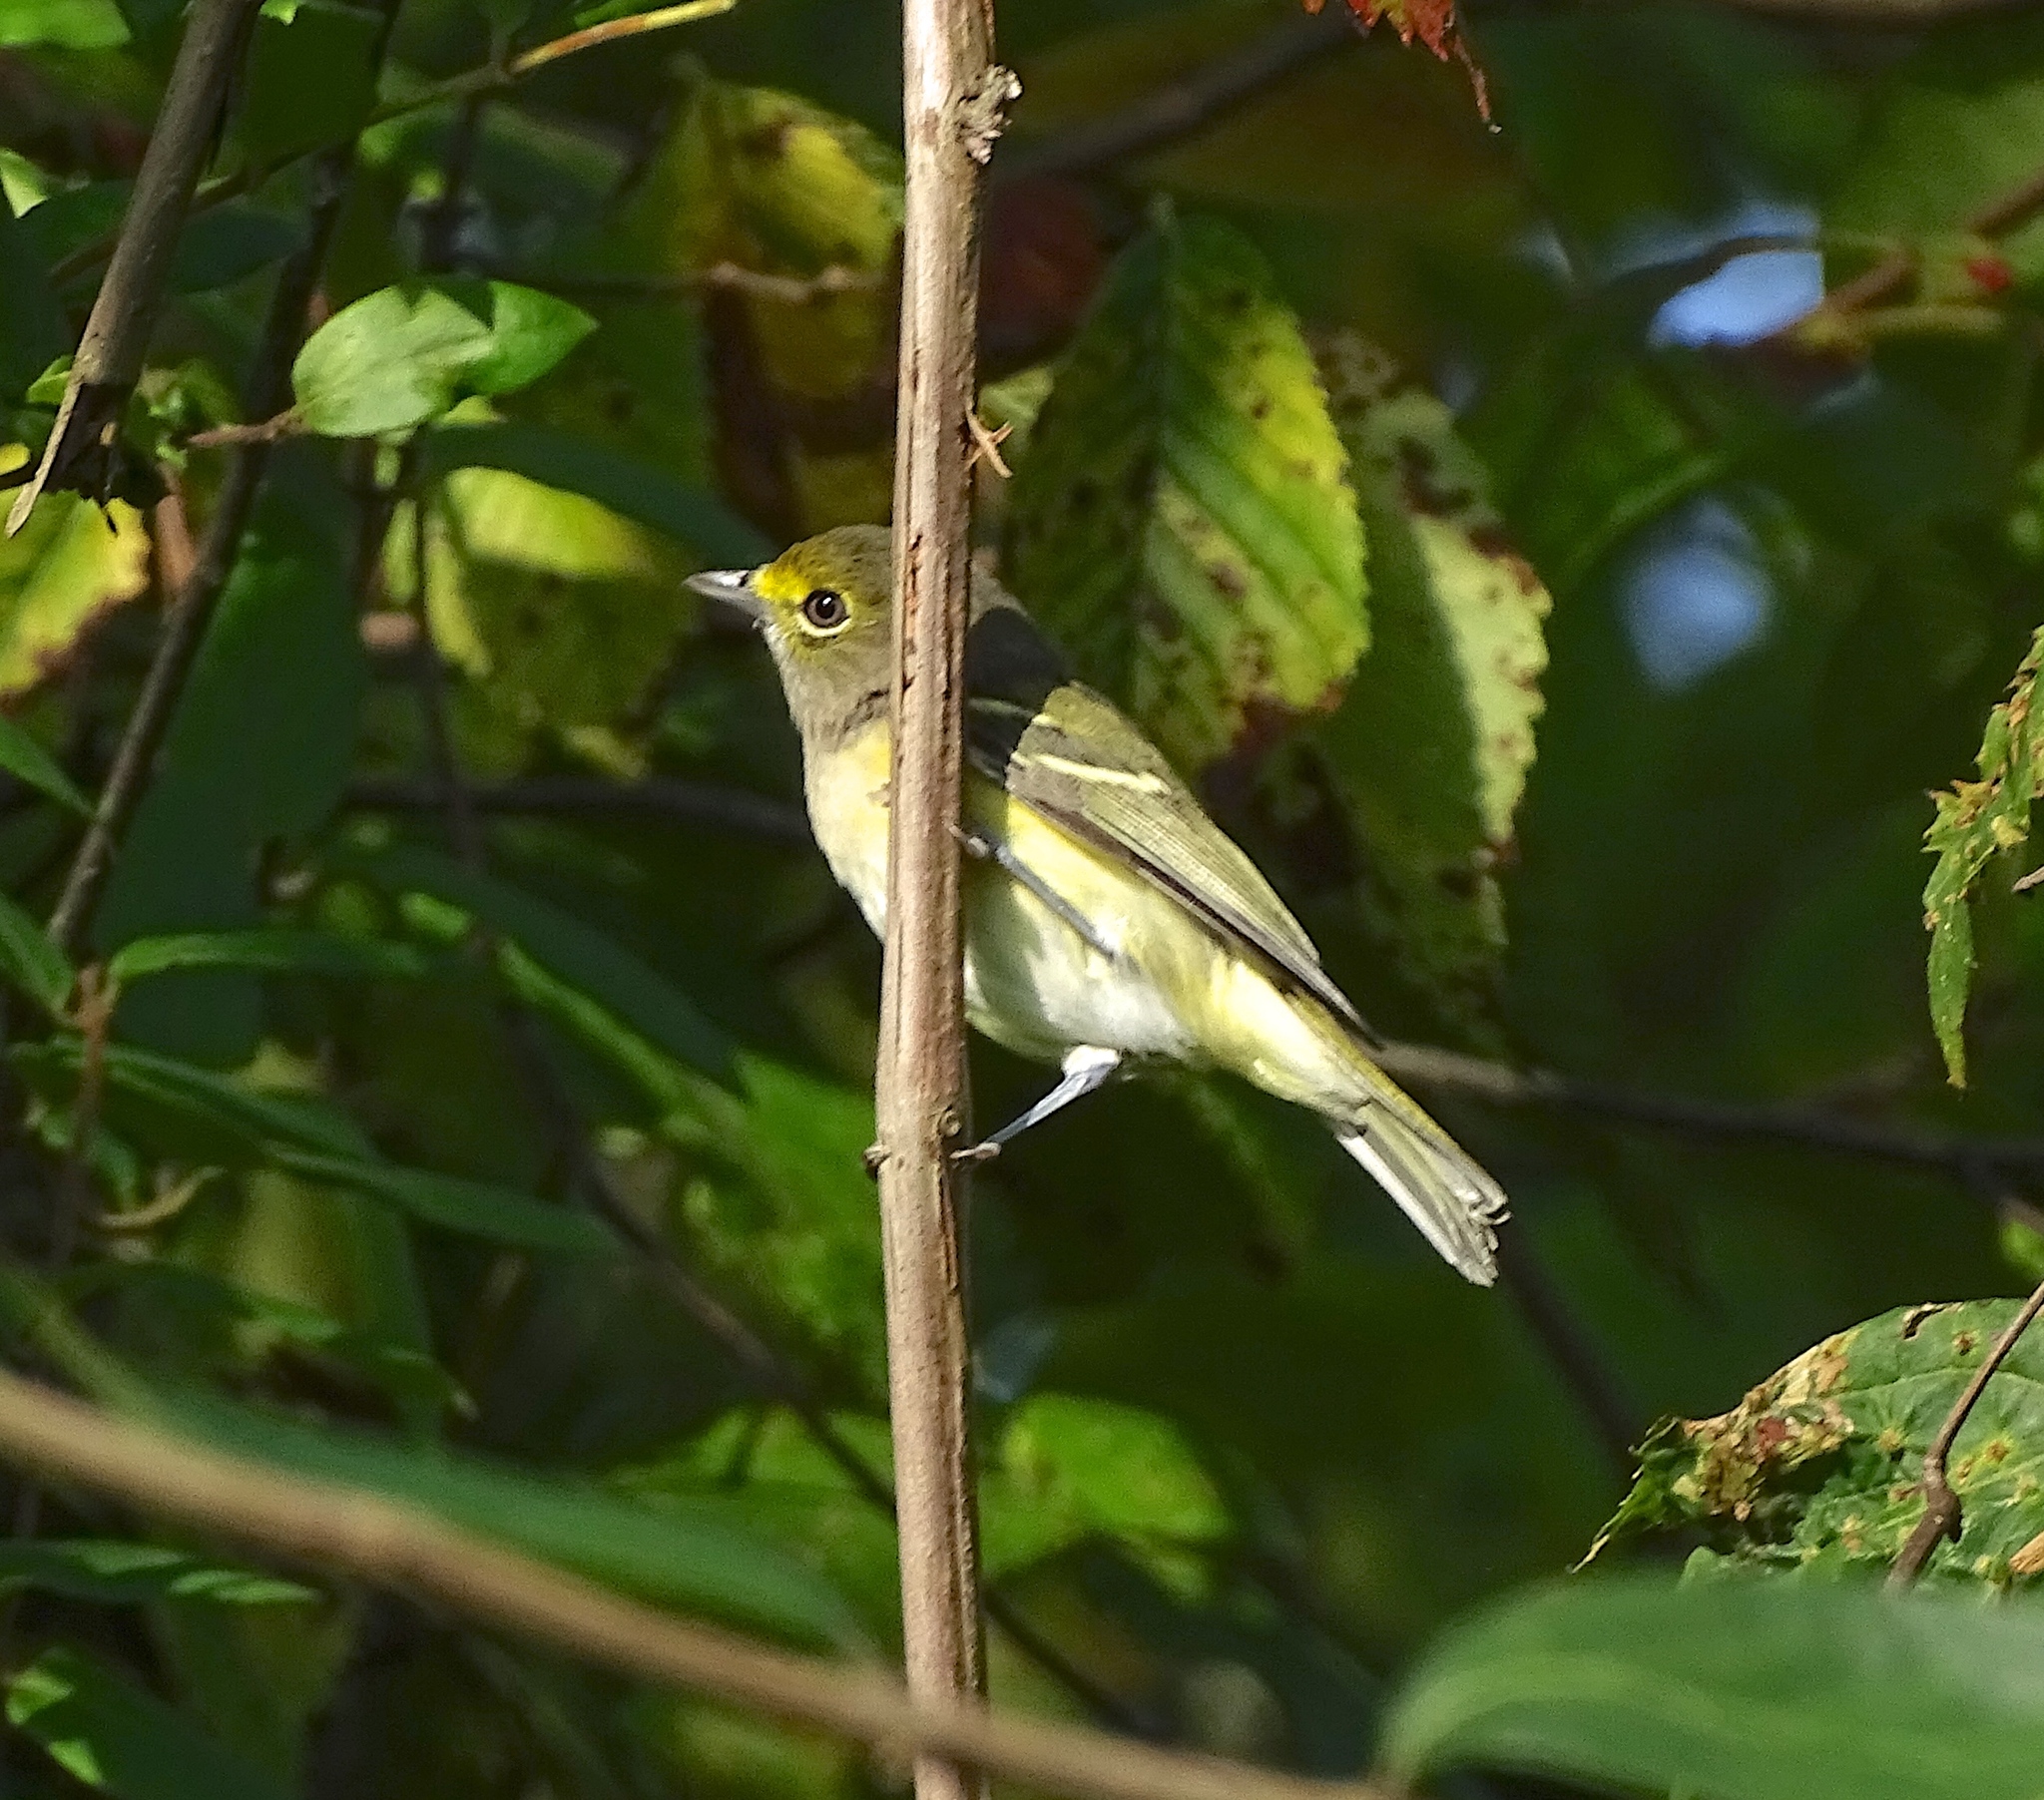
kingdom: Animalia
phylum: Chordata
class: Aves
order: Passeriformes
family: Vireonidae
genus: Vireo
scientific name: Vireo griseus
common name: White-eyed vireo
